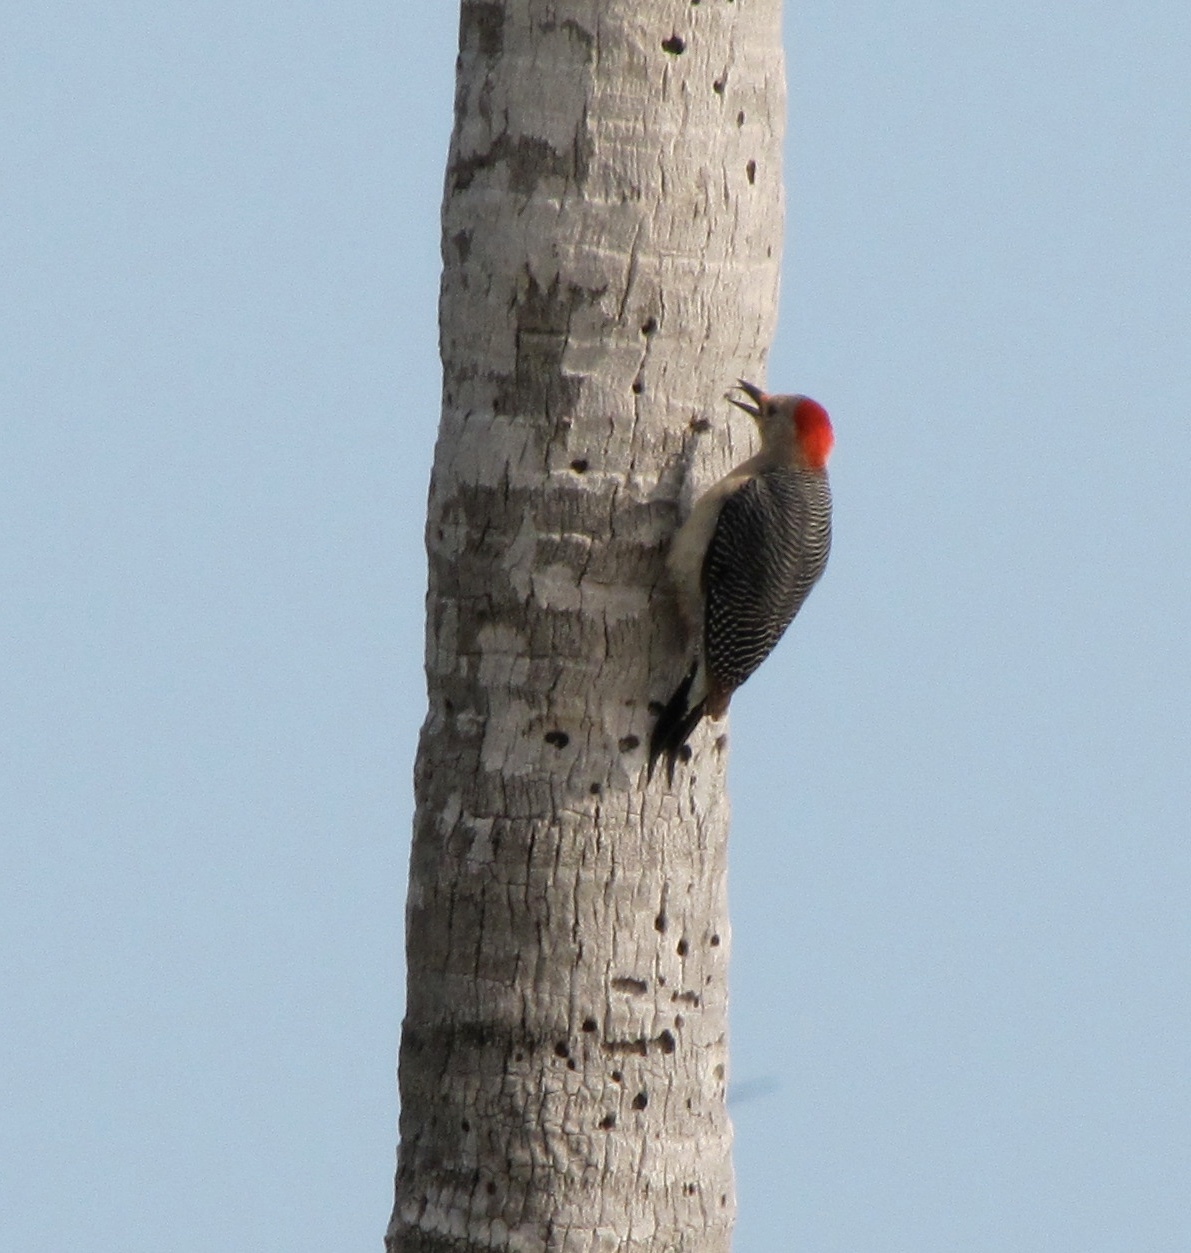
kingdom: Animalia
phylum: Chordata
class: Aves
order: Piciformes
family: Picidae
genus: Melanerpes
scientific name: Melanerpes aurifrons
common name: Golden-fronted woodpecker
